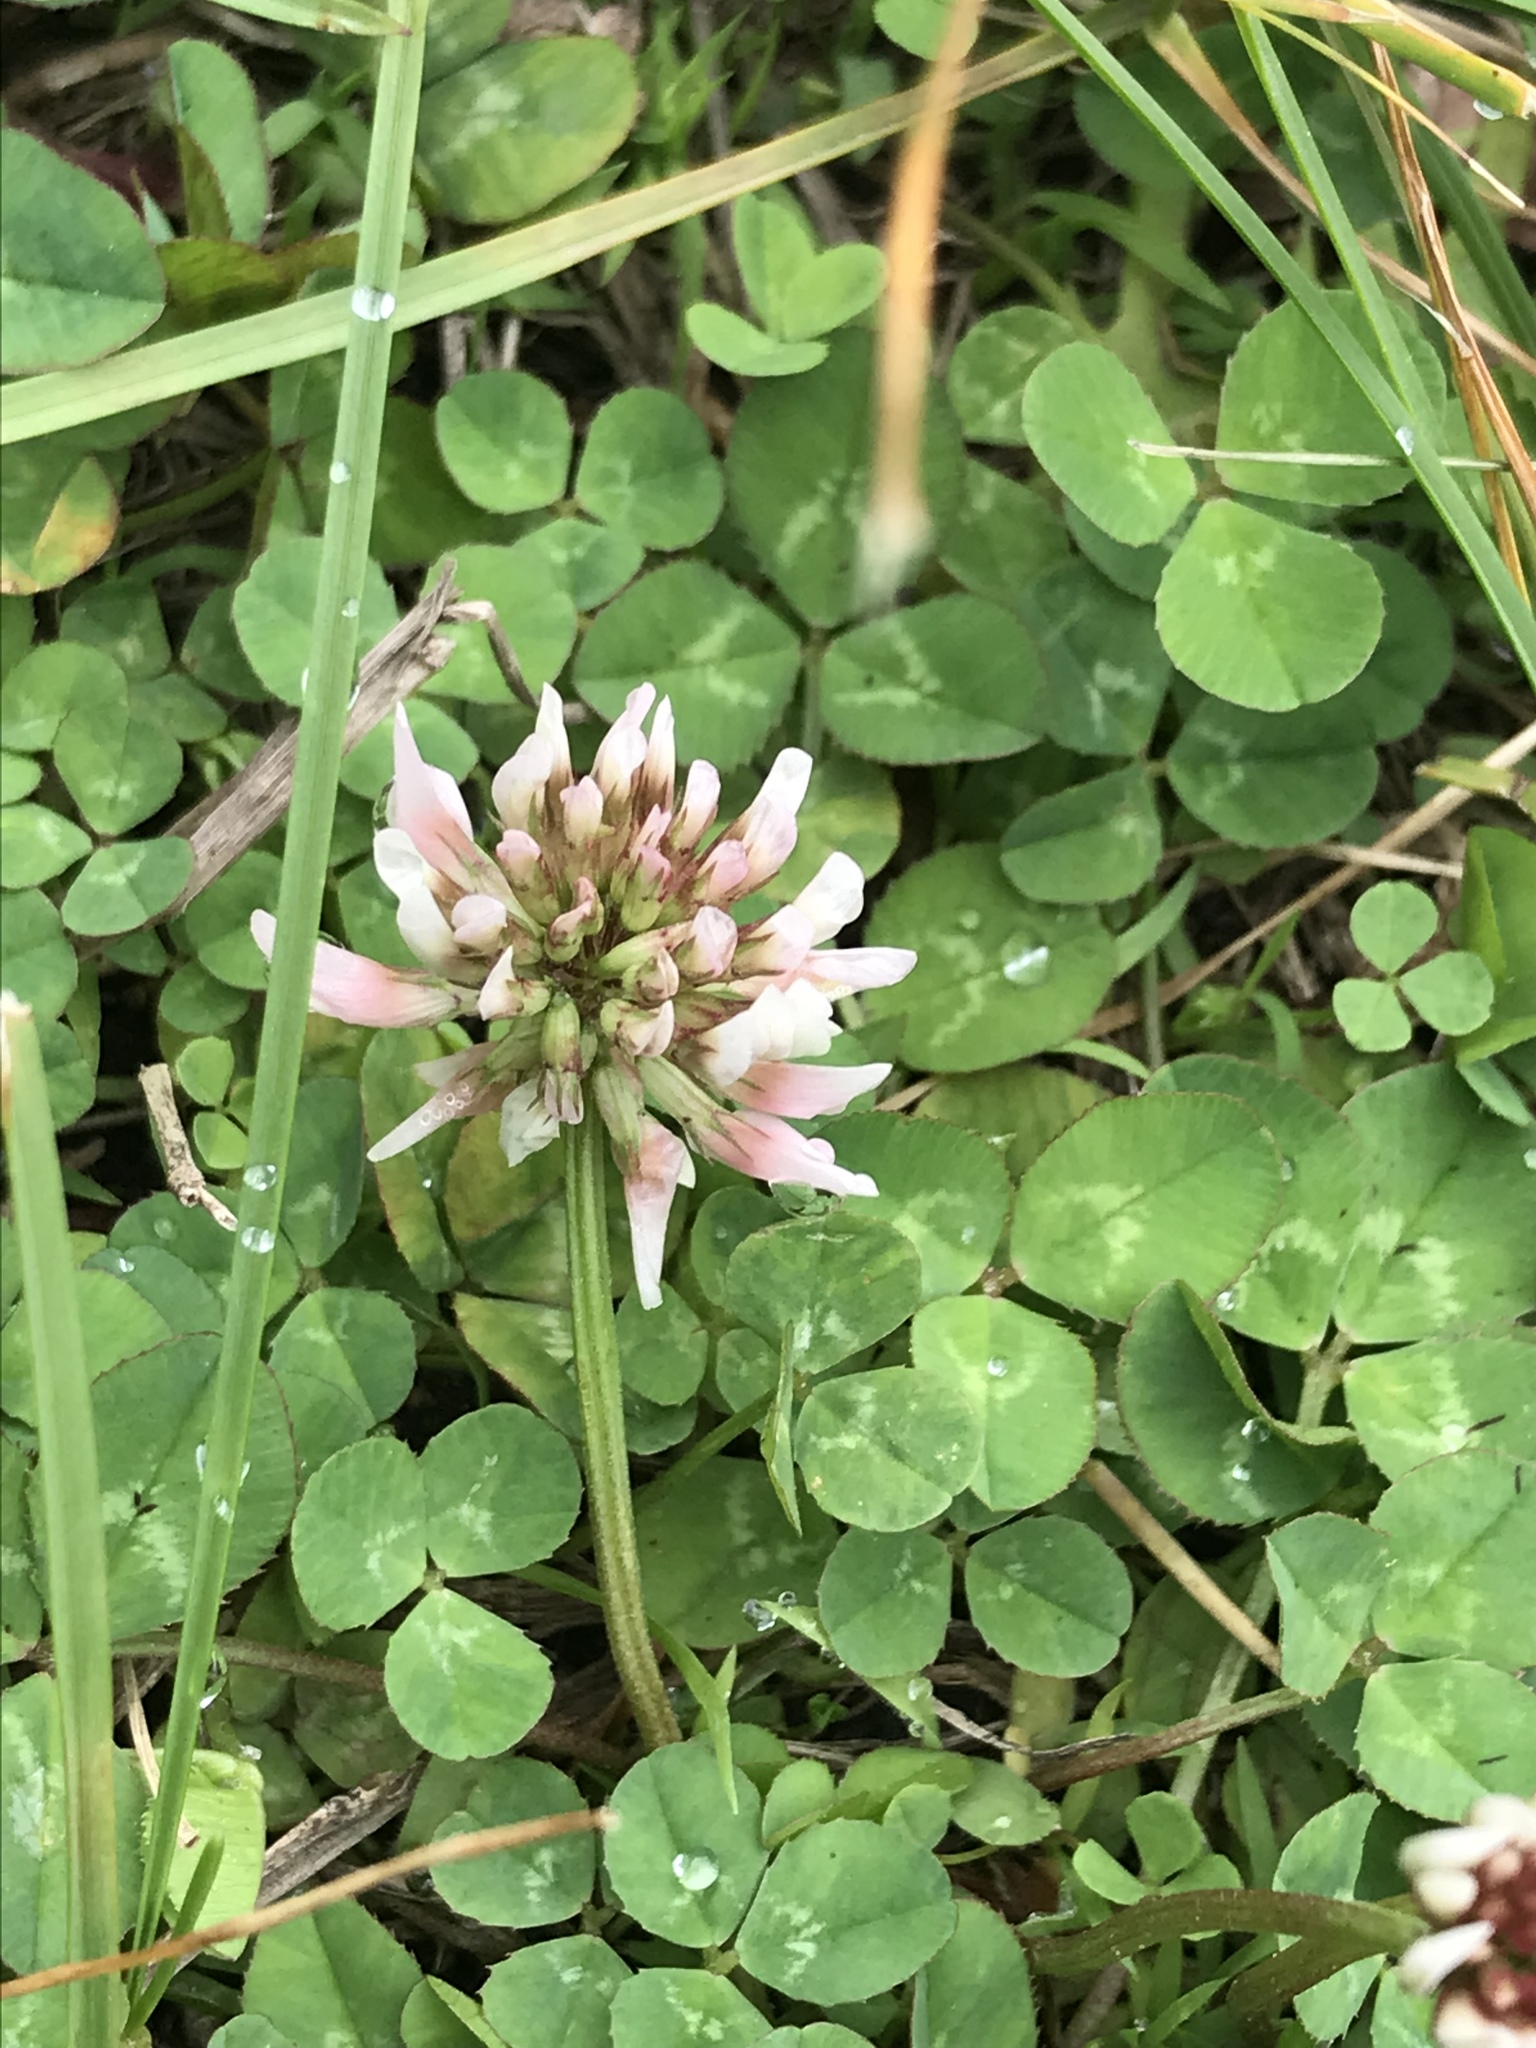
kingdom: Plantae
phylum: Tracheophyta
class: Magnoliopsida
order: Fabales
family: Fabaceae
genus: Trifolium
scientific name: Trifolium repens
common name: White clover
